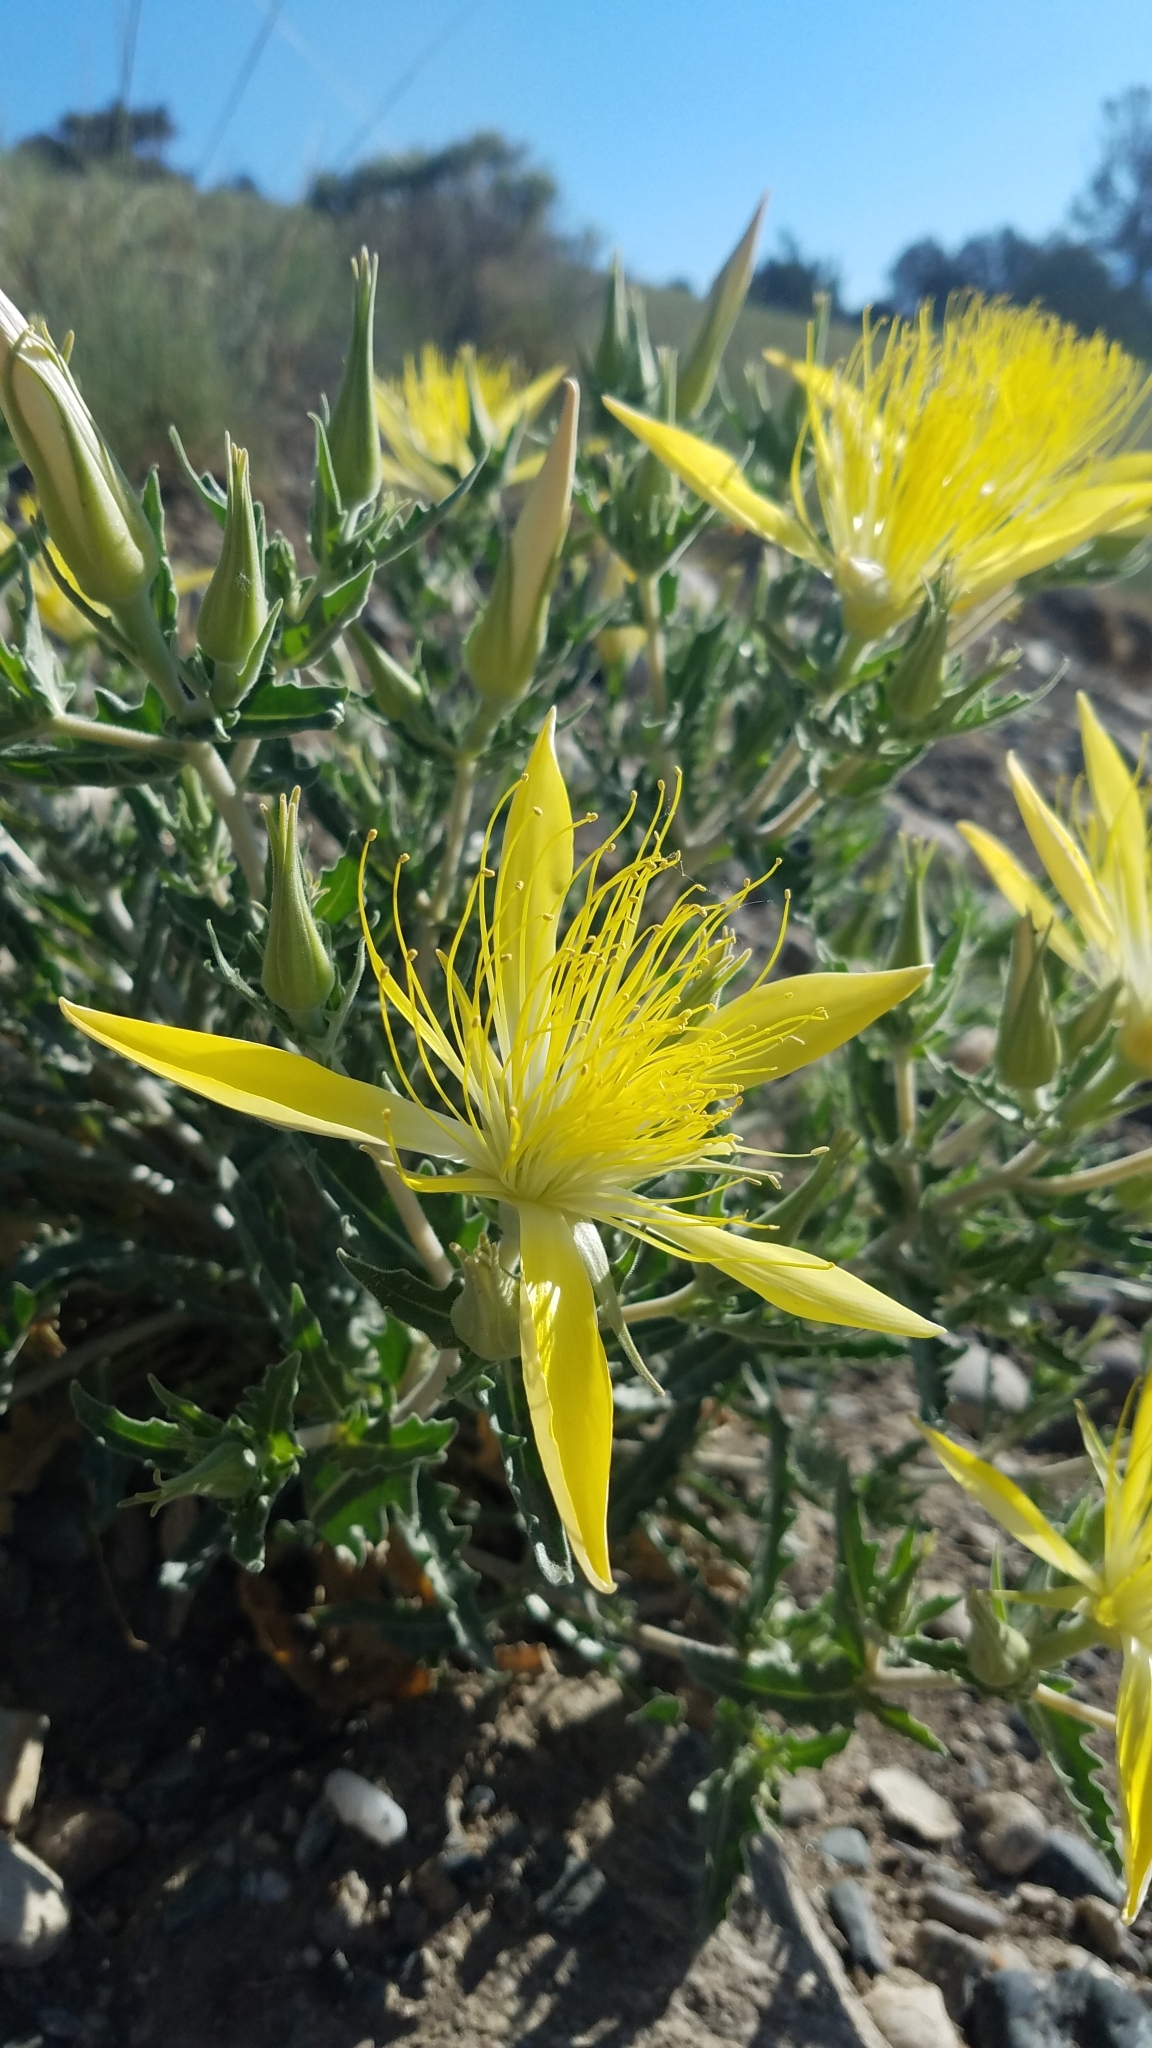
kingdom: Plantae
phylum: Tracheophyta
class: Magnoliopsida
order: Cornales
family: Loasaceae
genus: Mentzelia
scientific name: Mentzelia laevicaulis
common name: Smooth-stem blazingstar
